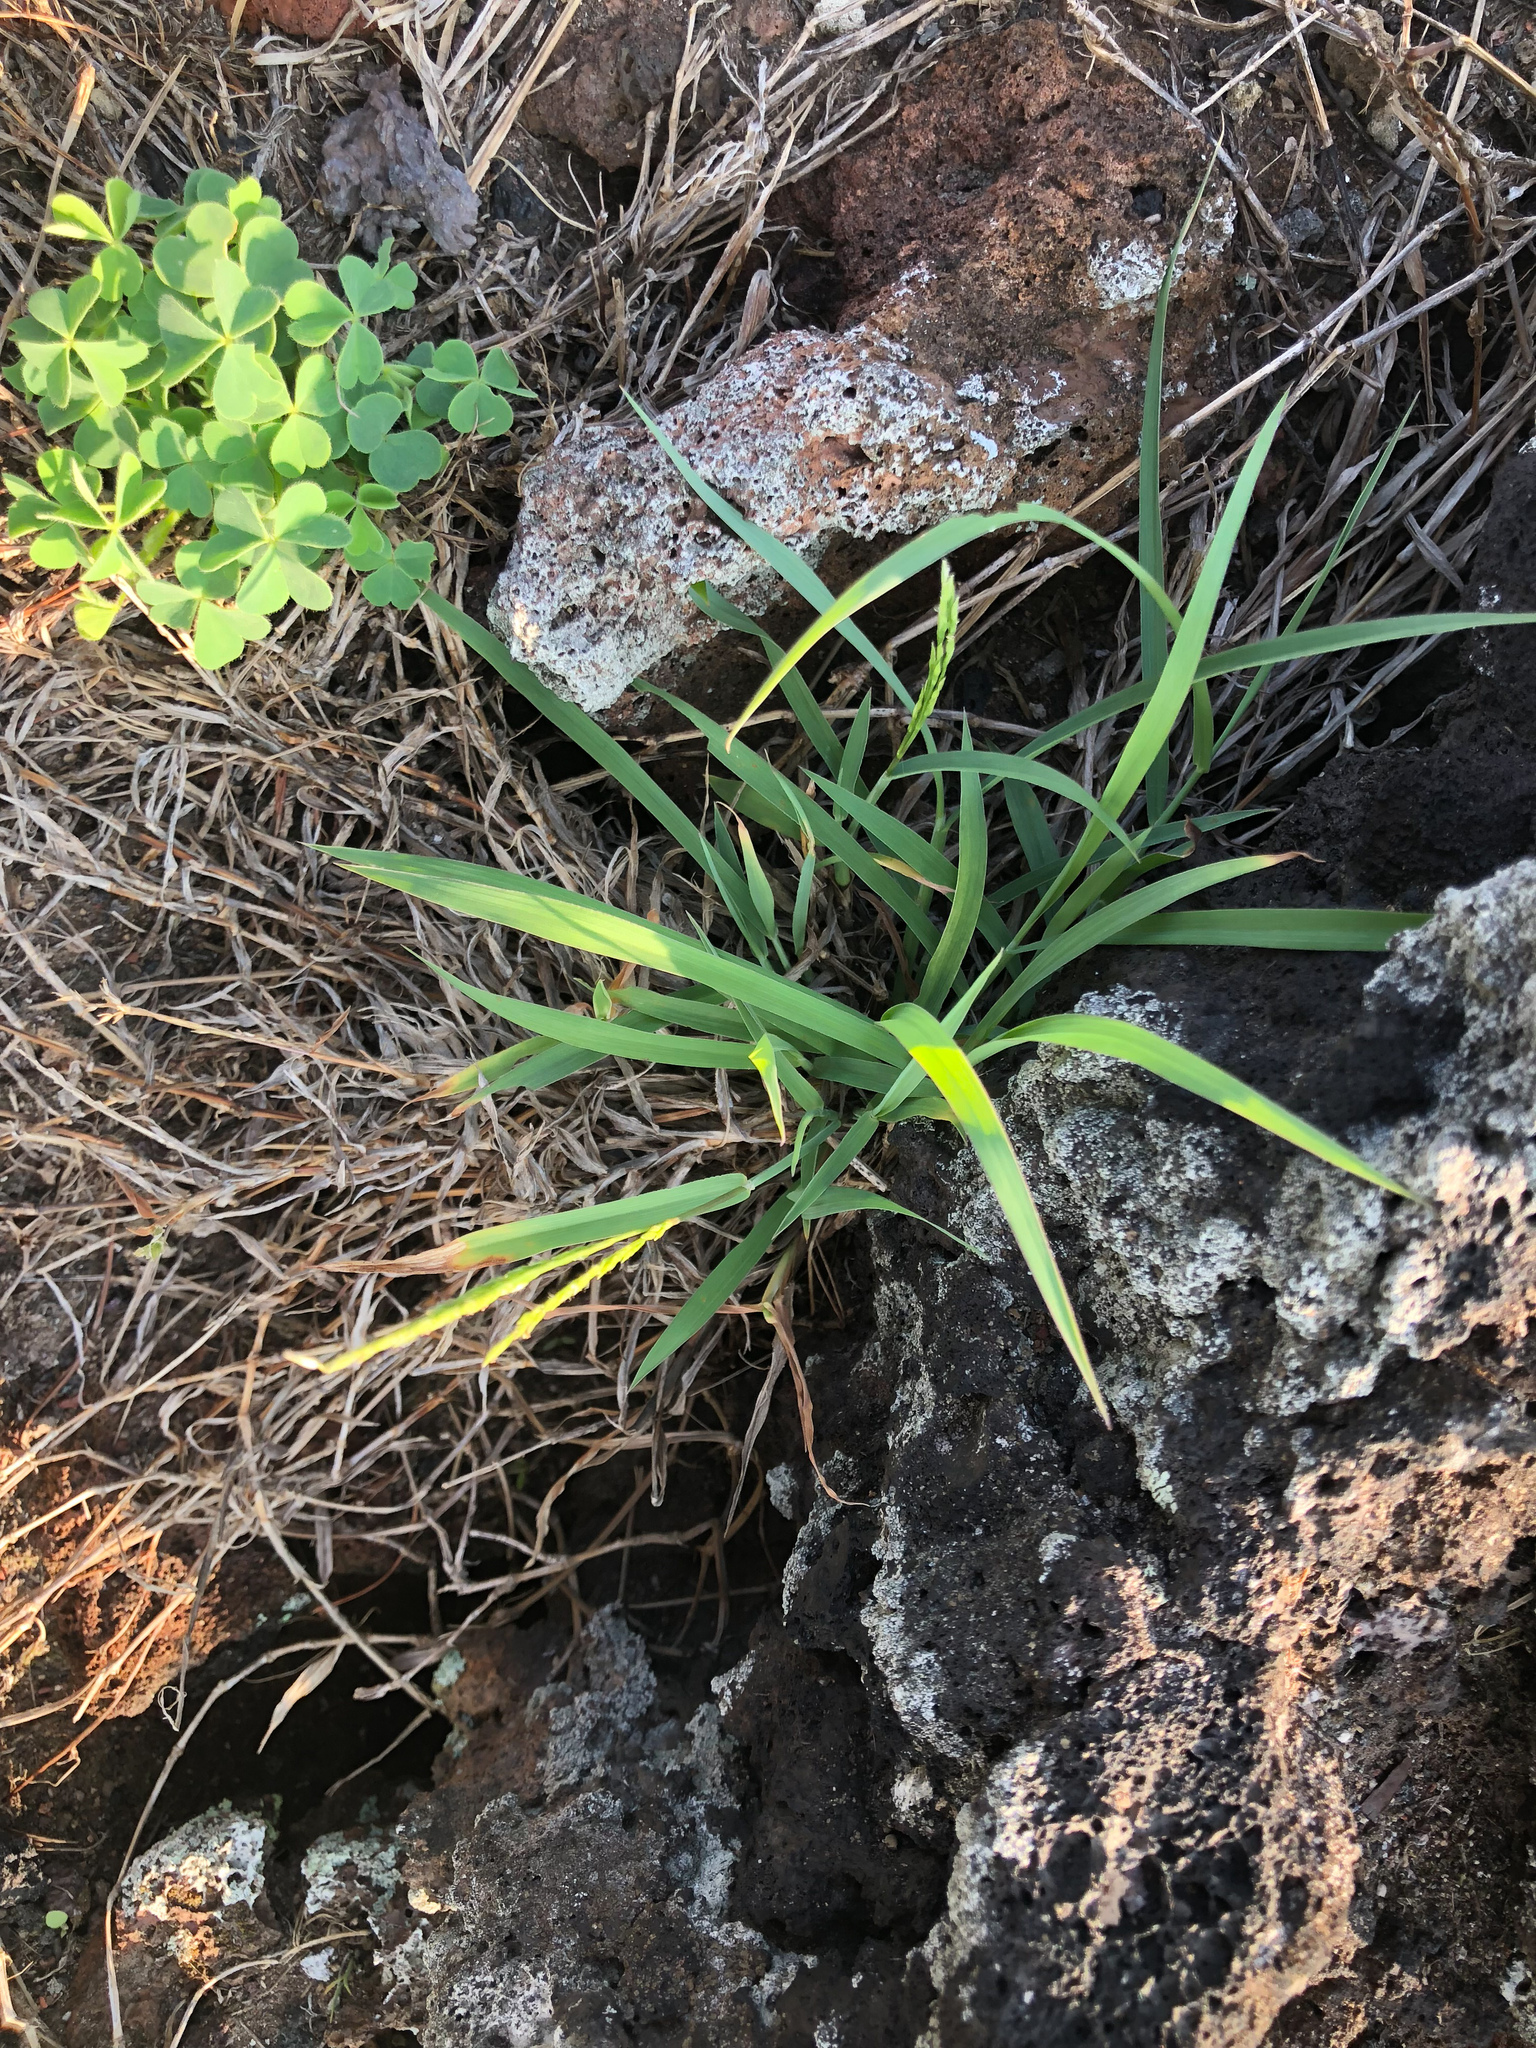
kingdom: Plantae
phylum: Tracheophyta
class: Liliopsida
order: Poales
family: Poaceae
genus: Digitaria
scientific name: Digitaria ciliaris
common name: Tropical finger-grass
